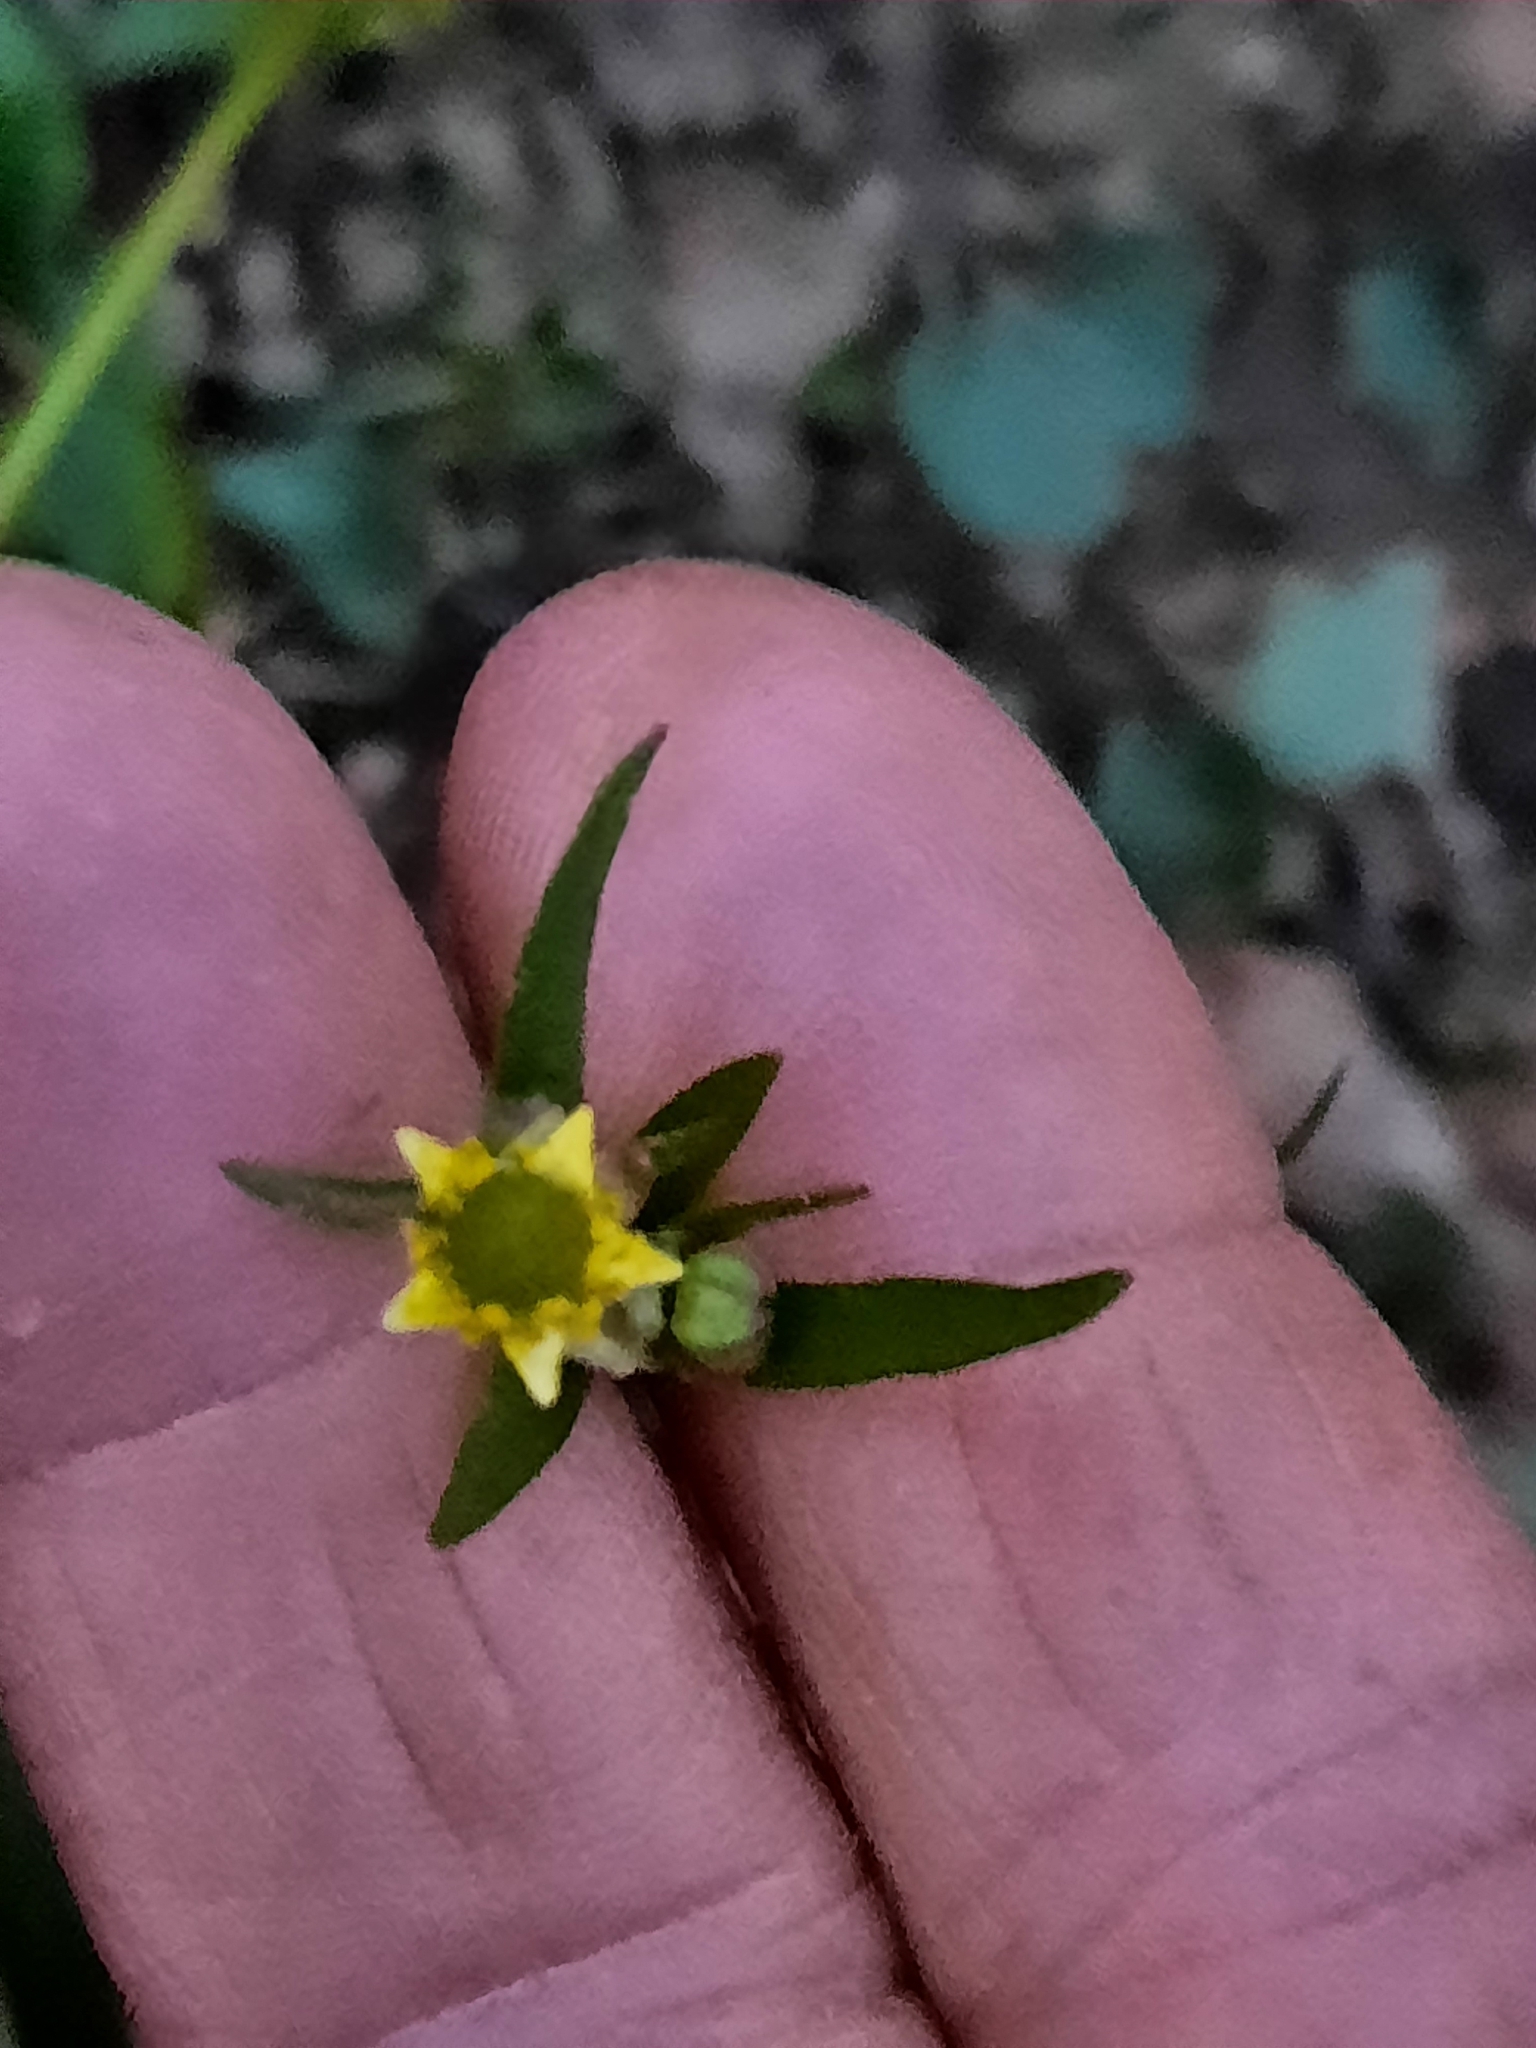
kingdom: Plantae
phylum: Tracheophyta
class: Magnoliopsida
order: Ranunculales
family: Ranunculaceae
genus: Ranunculus
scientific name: Ranunculus abortivus
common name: Early wood buttercup
